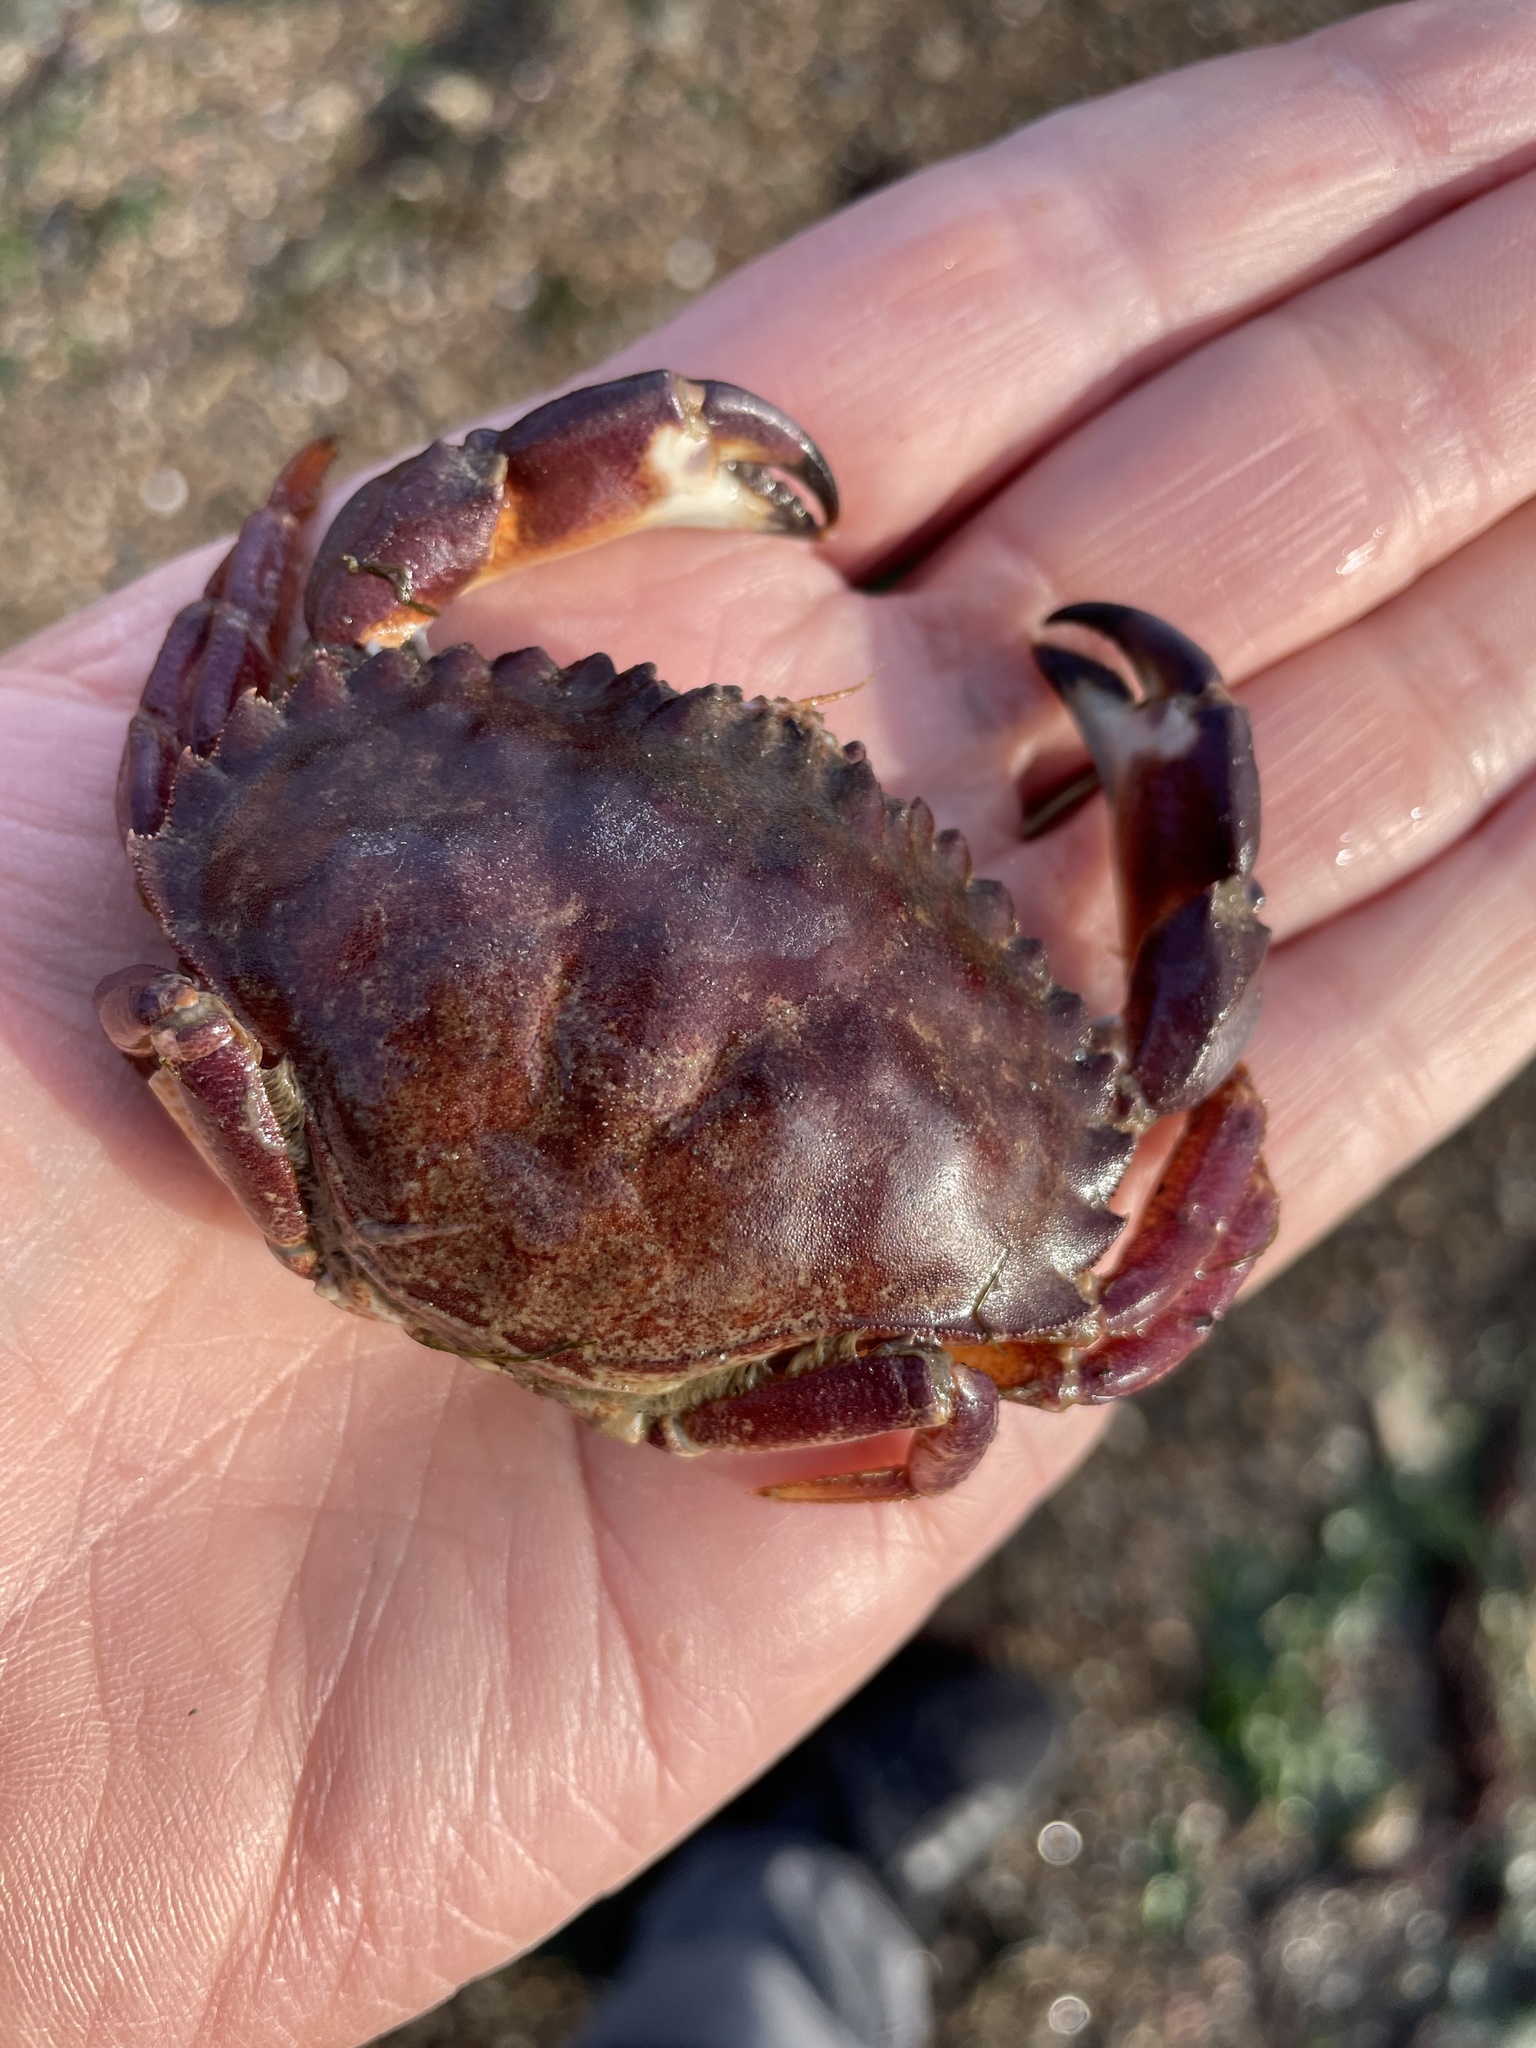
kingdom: Animalia
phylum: Arthropoda
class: Malacostraca
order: Decapoda
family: Cancridae
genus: Metacarcinus
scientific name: Metacarcinus anthonyi
